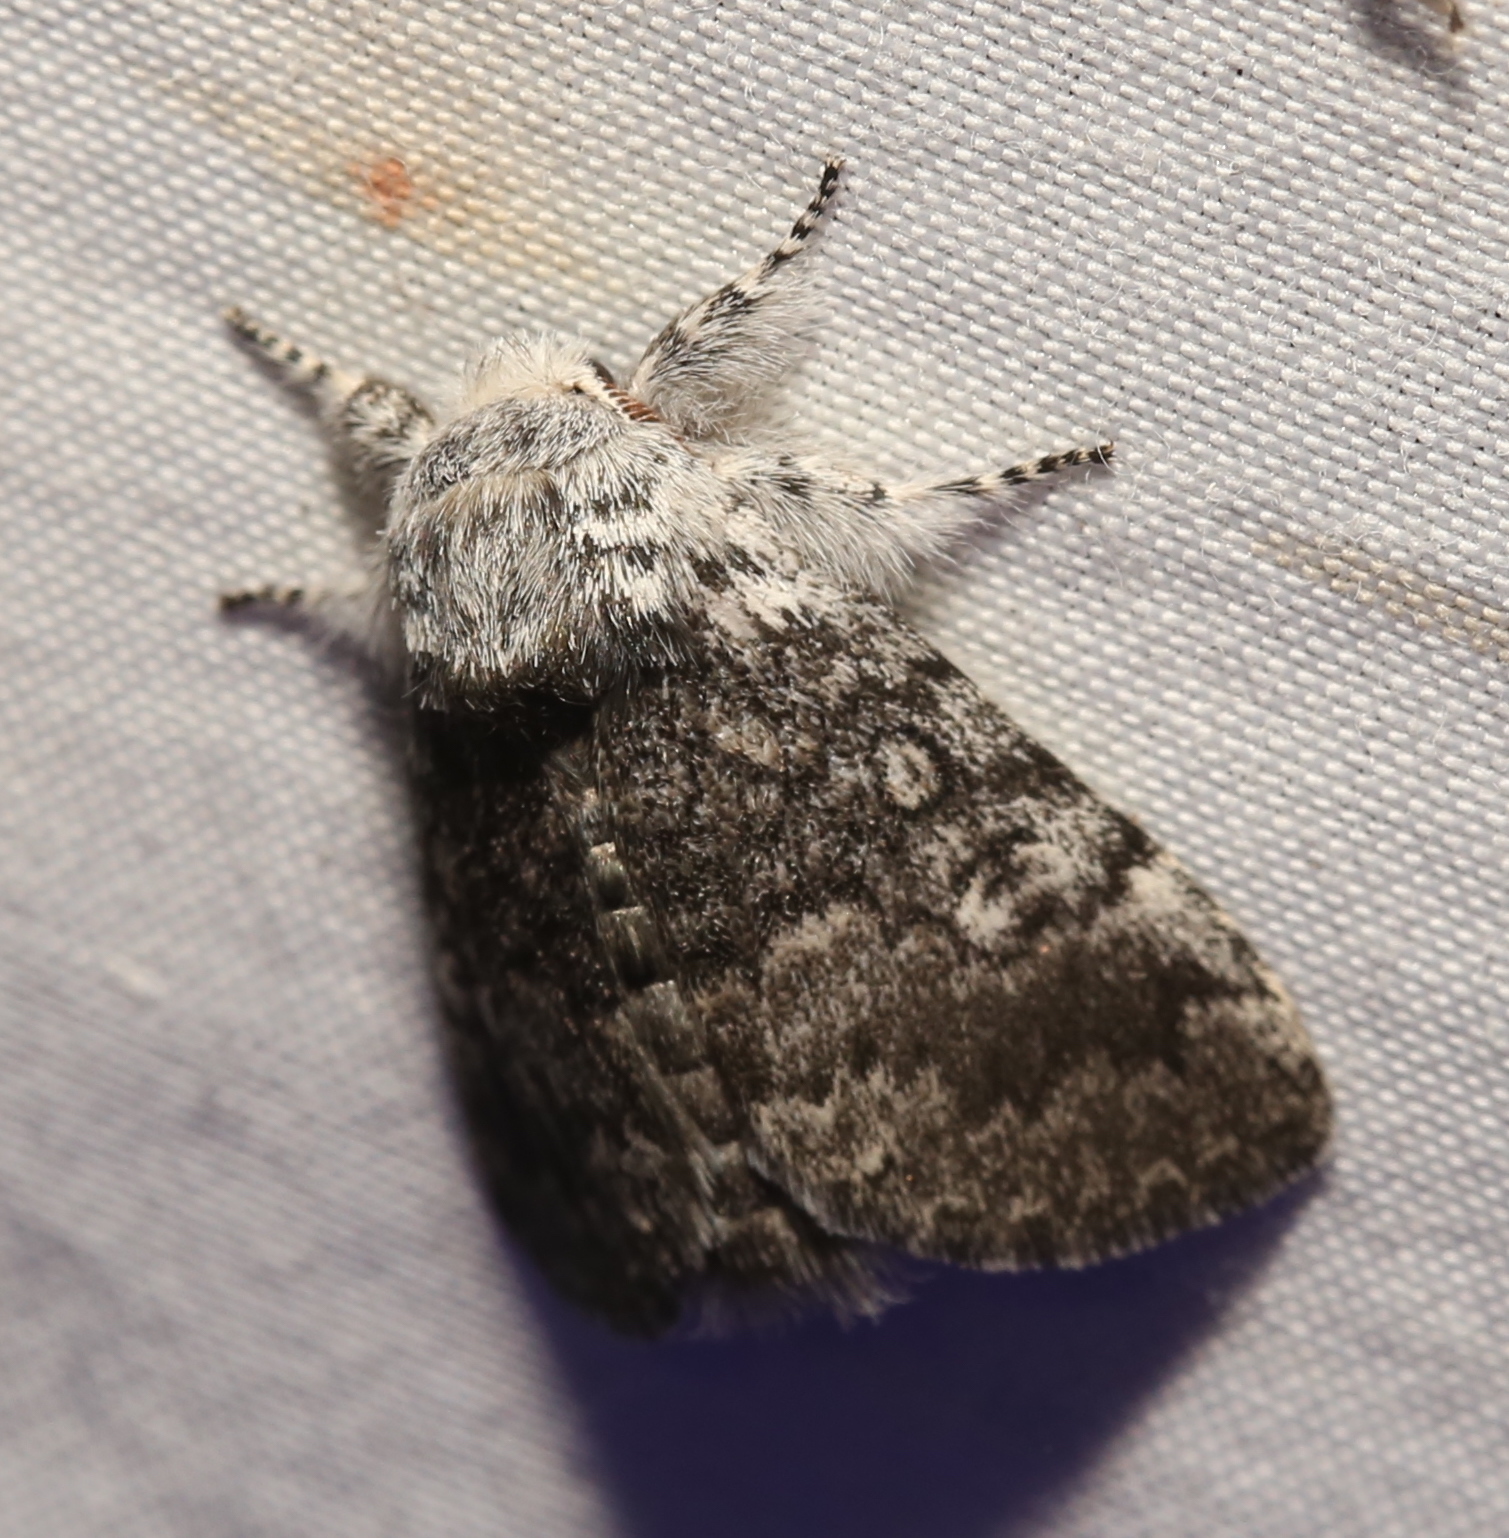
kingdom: Animalia
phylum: Arthropoda
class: Insecta
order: Lepidoptera
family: Noctuidae
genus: Colocasia
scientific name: Colocasia propinquilinea
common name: Close-banded demas
